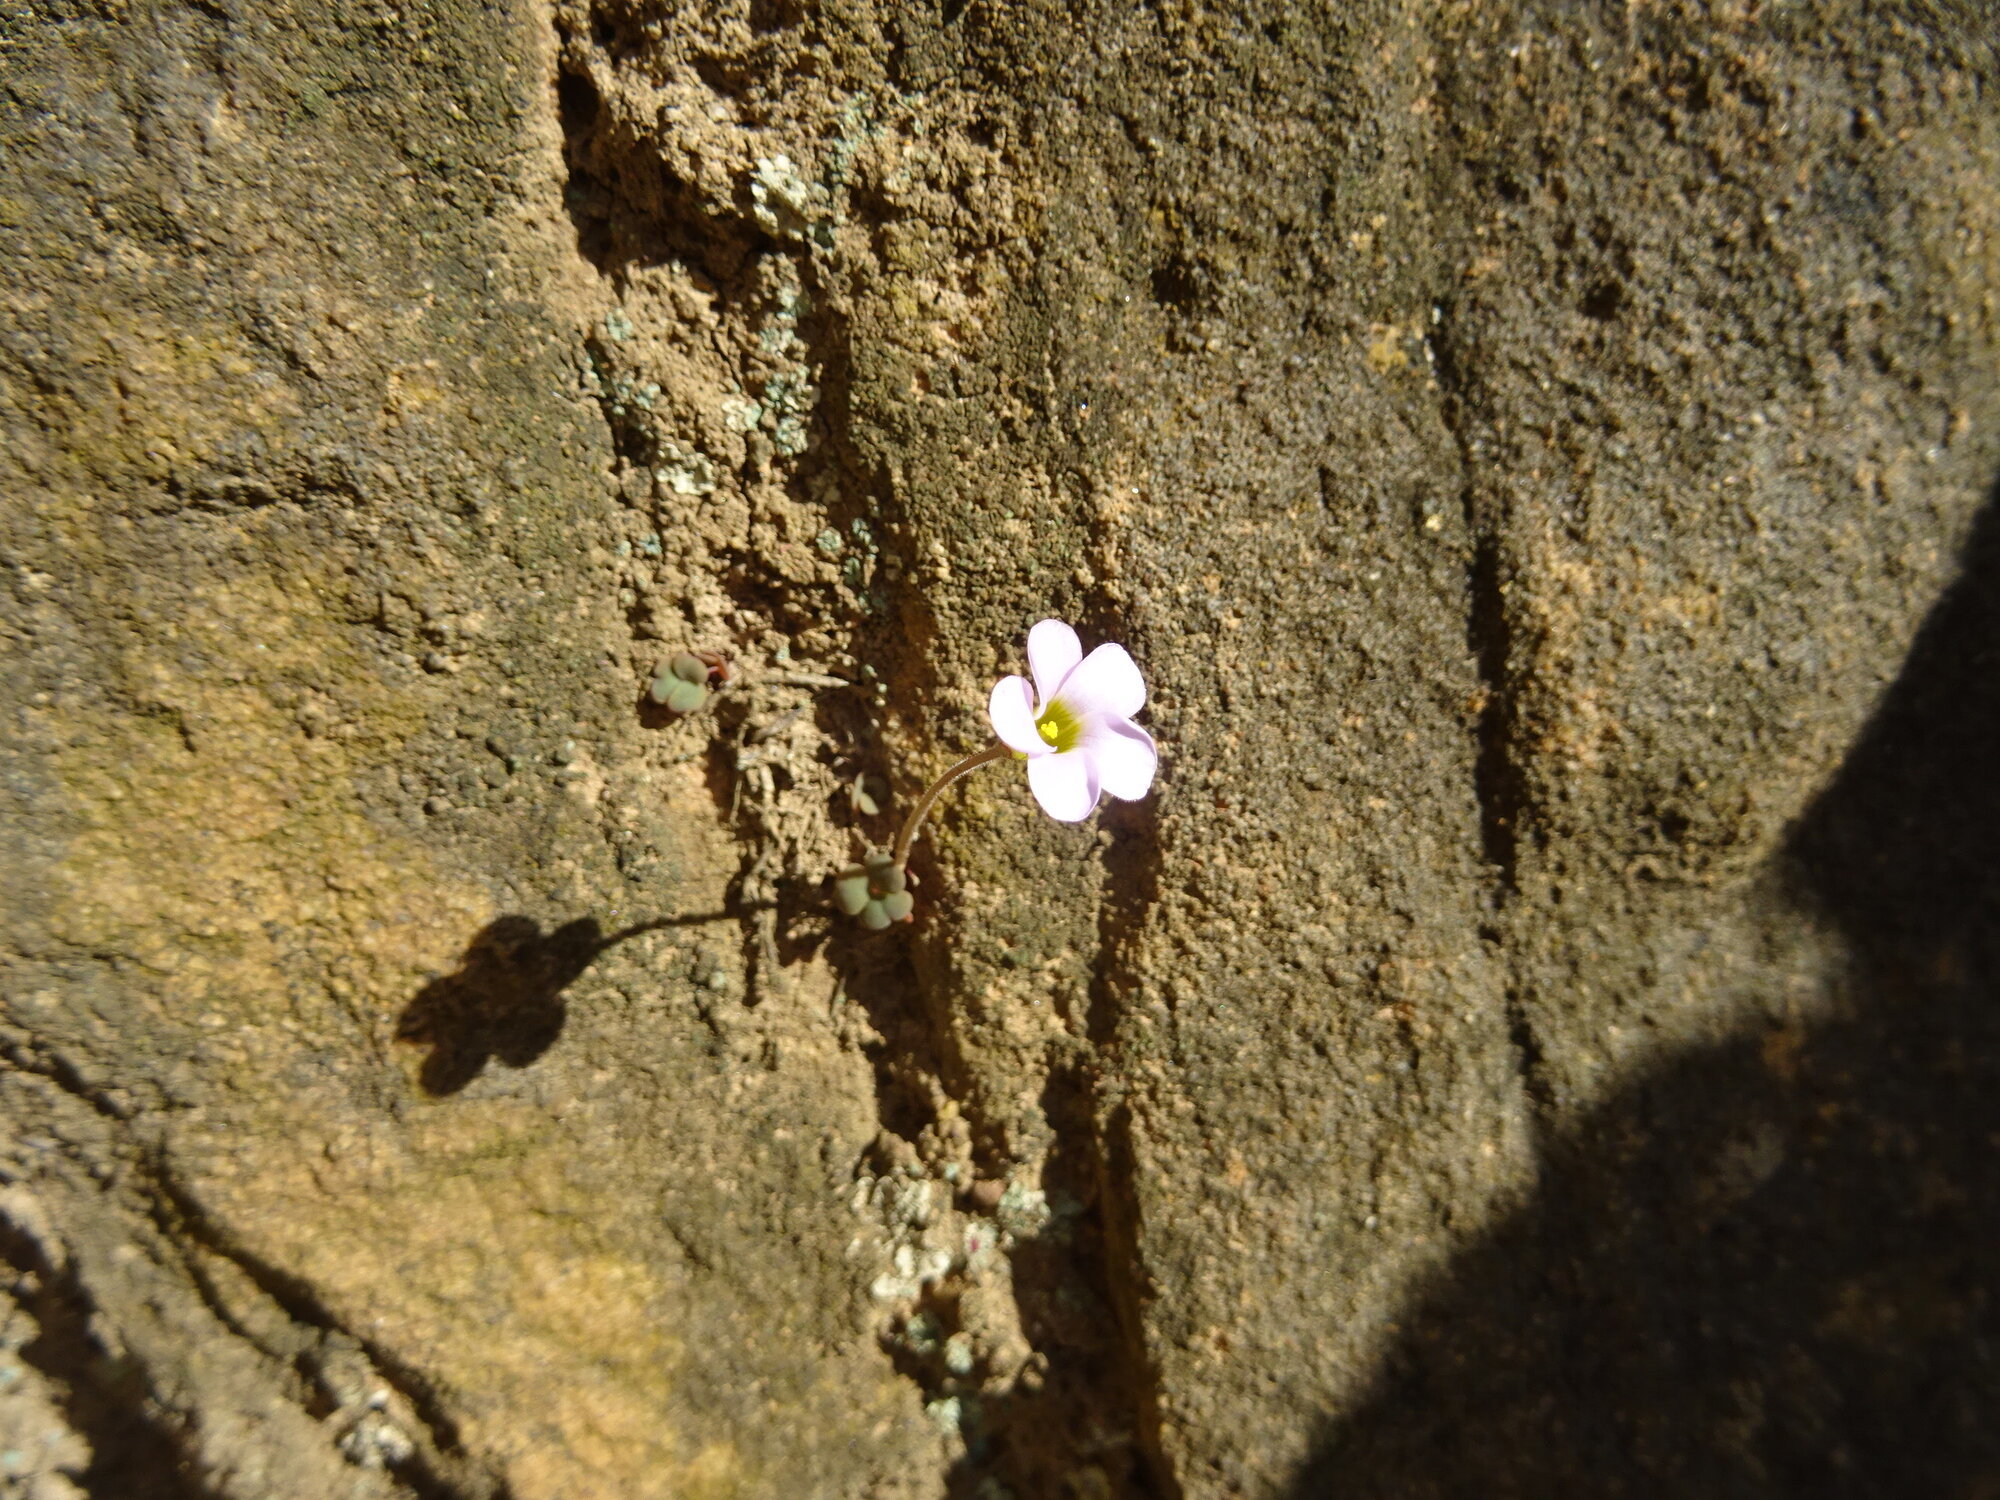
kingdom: Plantae
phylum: Tracheophyta
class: Magnoliopsida
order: Oxalidales
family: Oxalidaceae
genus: Oxalis
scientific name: Oxalis punctata
